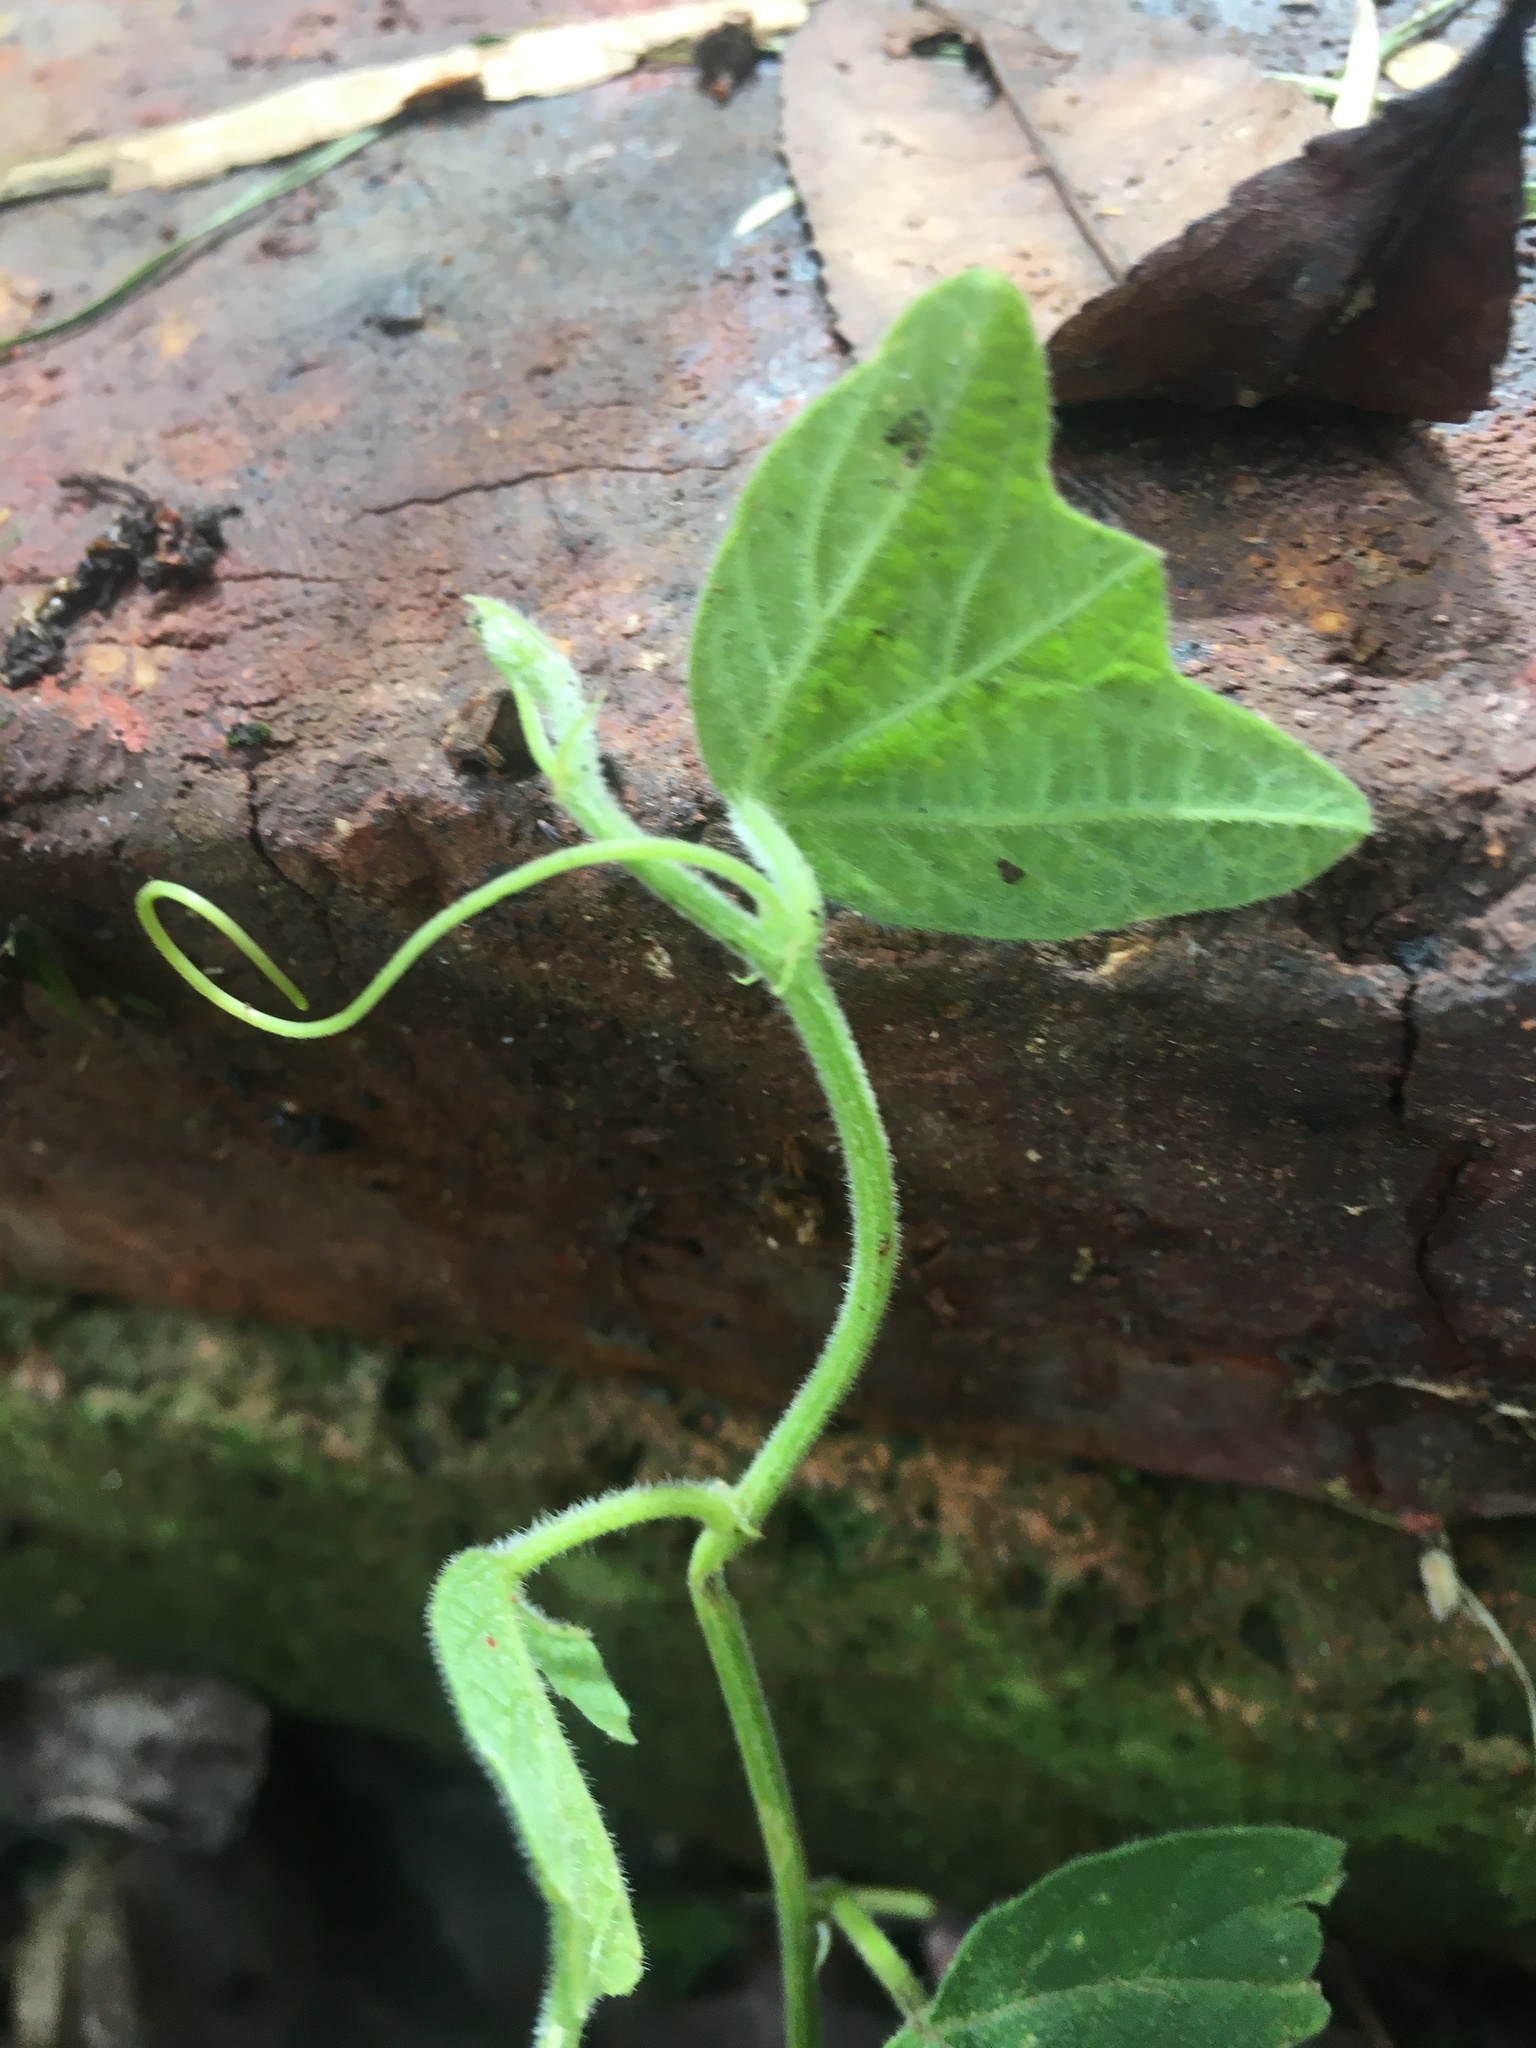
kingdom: Plantae
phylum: Tracheophyta
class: Magnoliopsida
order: Malpighiales
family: Passifloraceae
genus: Passiflora
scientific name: Passiflora bogotensis
